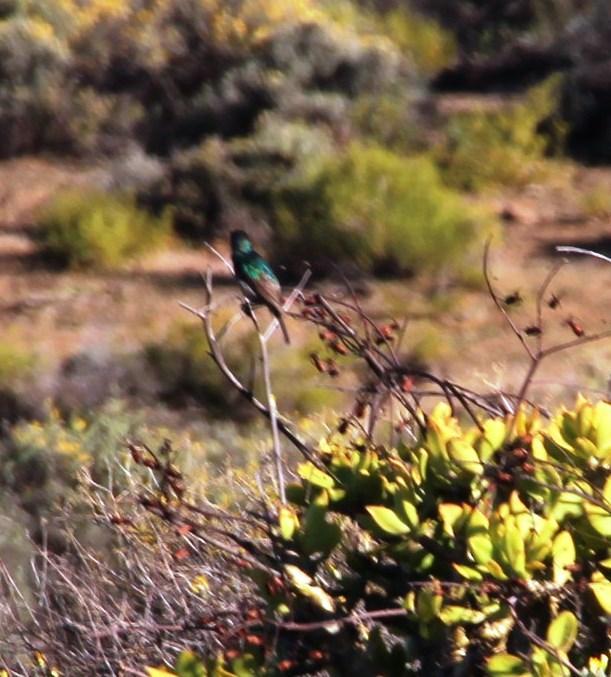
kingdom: Animalia
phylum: Chordata
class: Aves
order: Passeriformes
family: Nectariniidae
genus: Cinnyris
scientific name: Cinnyris chalybeus
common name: Southern double-collared sunbird
